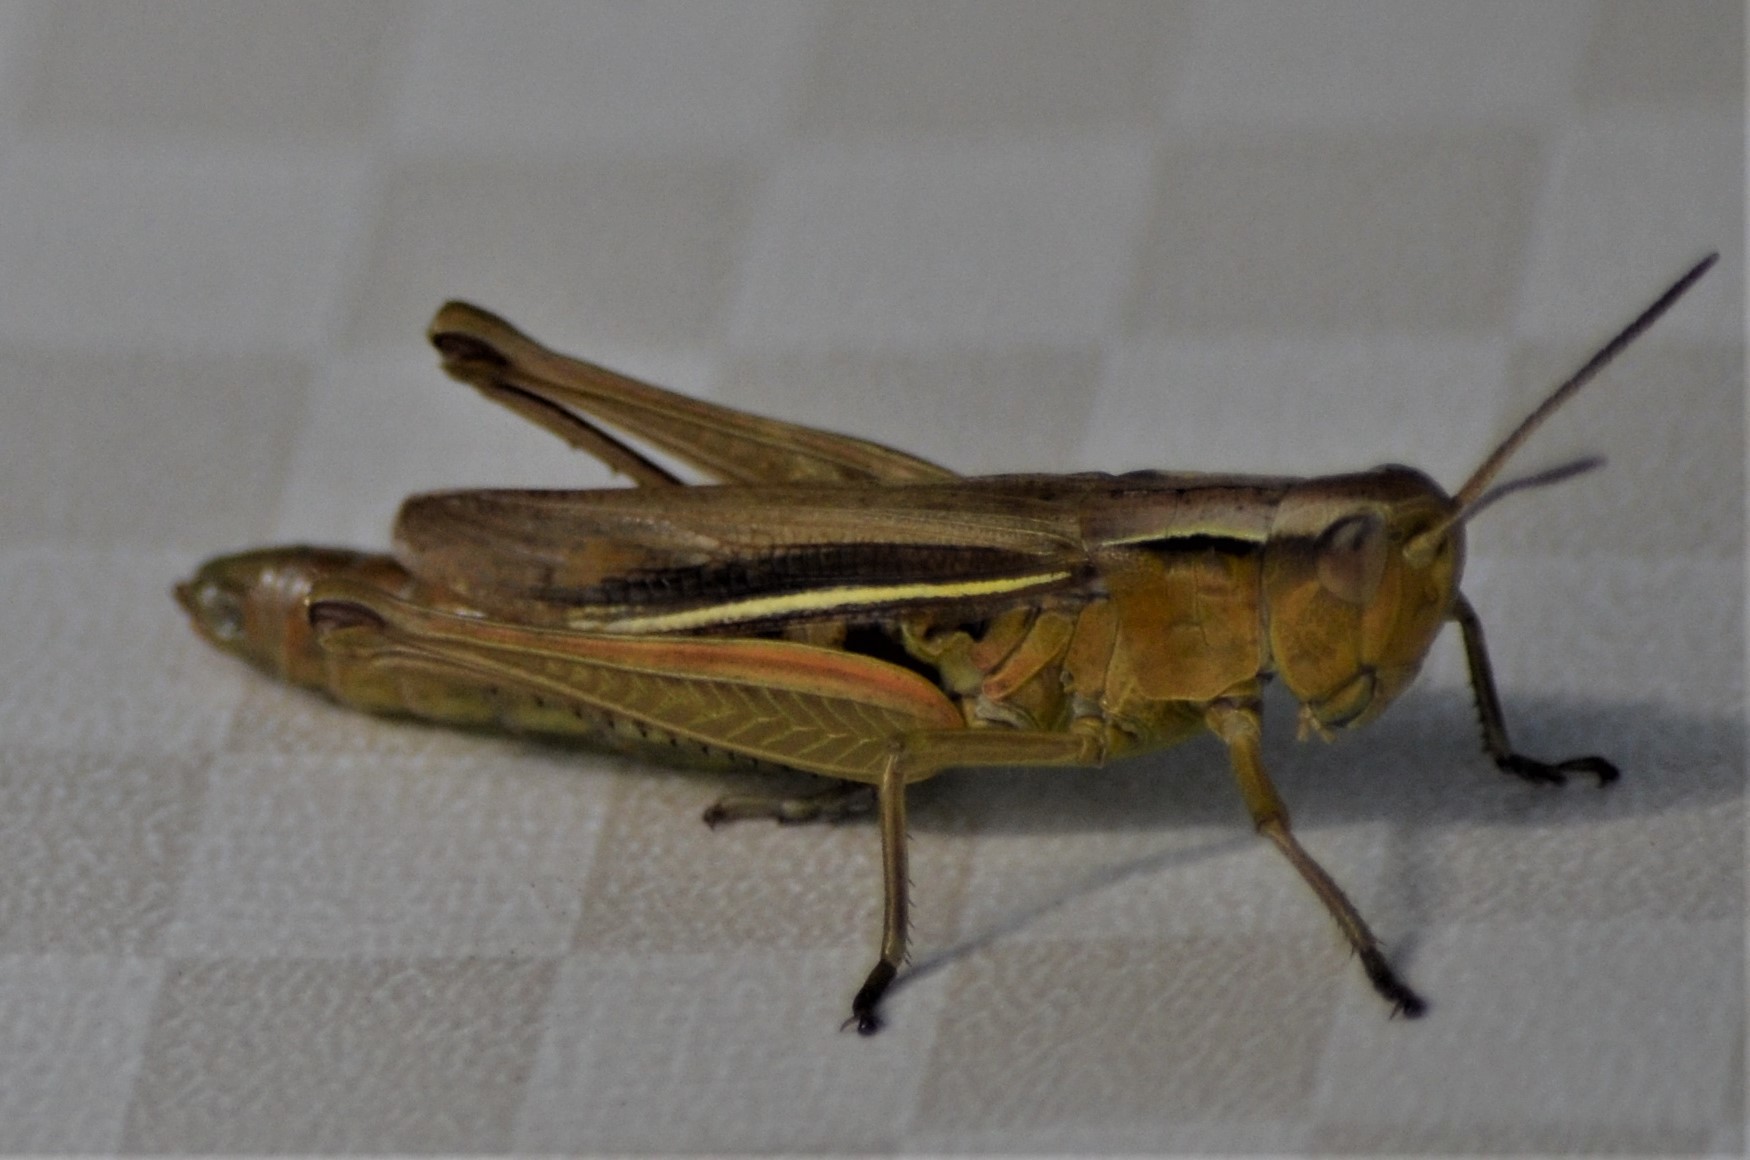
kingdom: Animalia
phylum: Arthropoda
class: Insecta
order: Orthoptera
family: Acrididae
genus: Chorthippus
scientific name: Chorthippus albomarginatus
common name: Lesser marsh grasshopper
